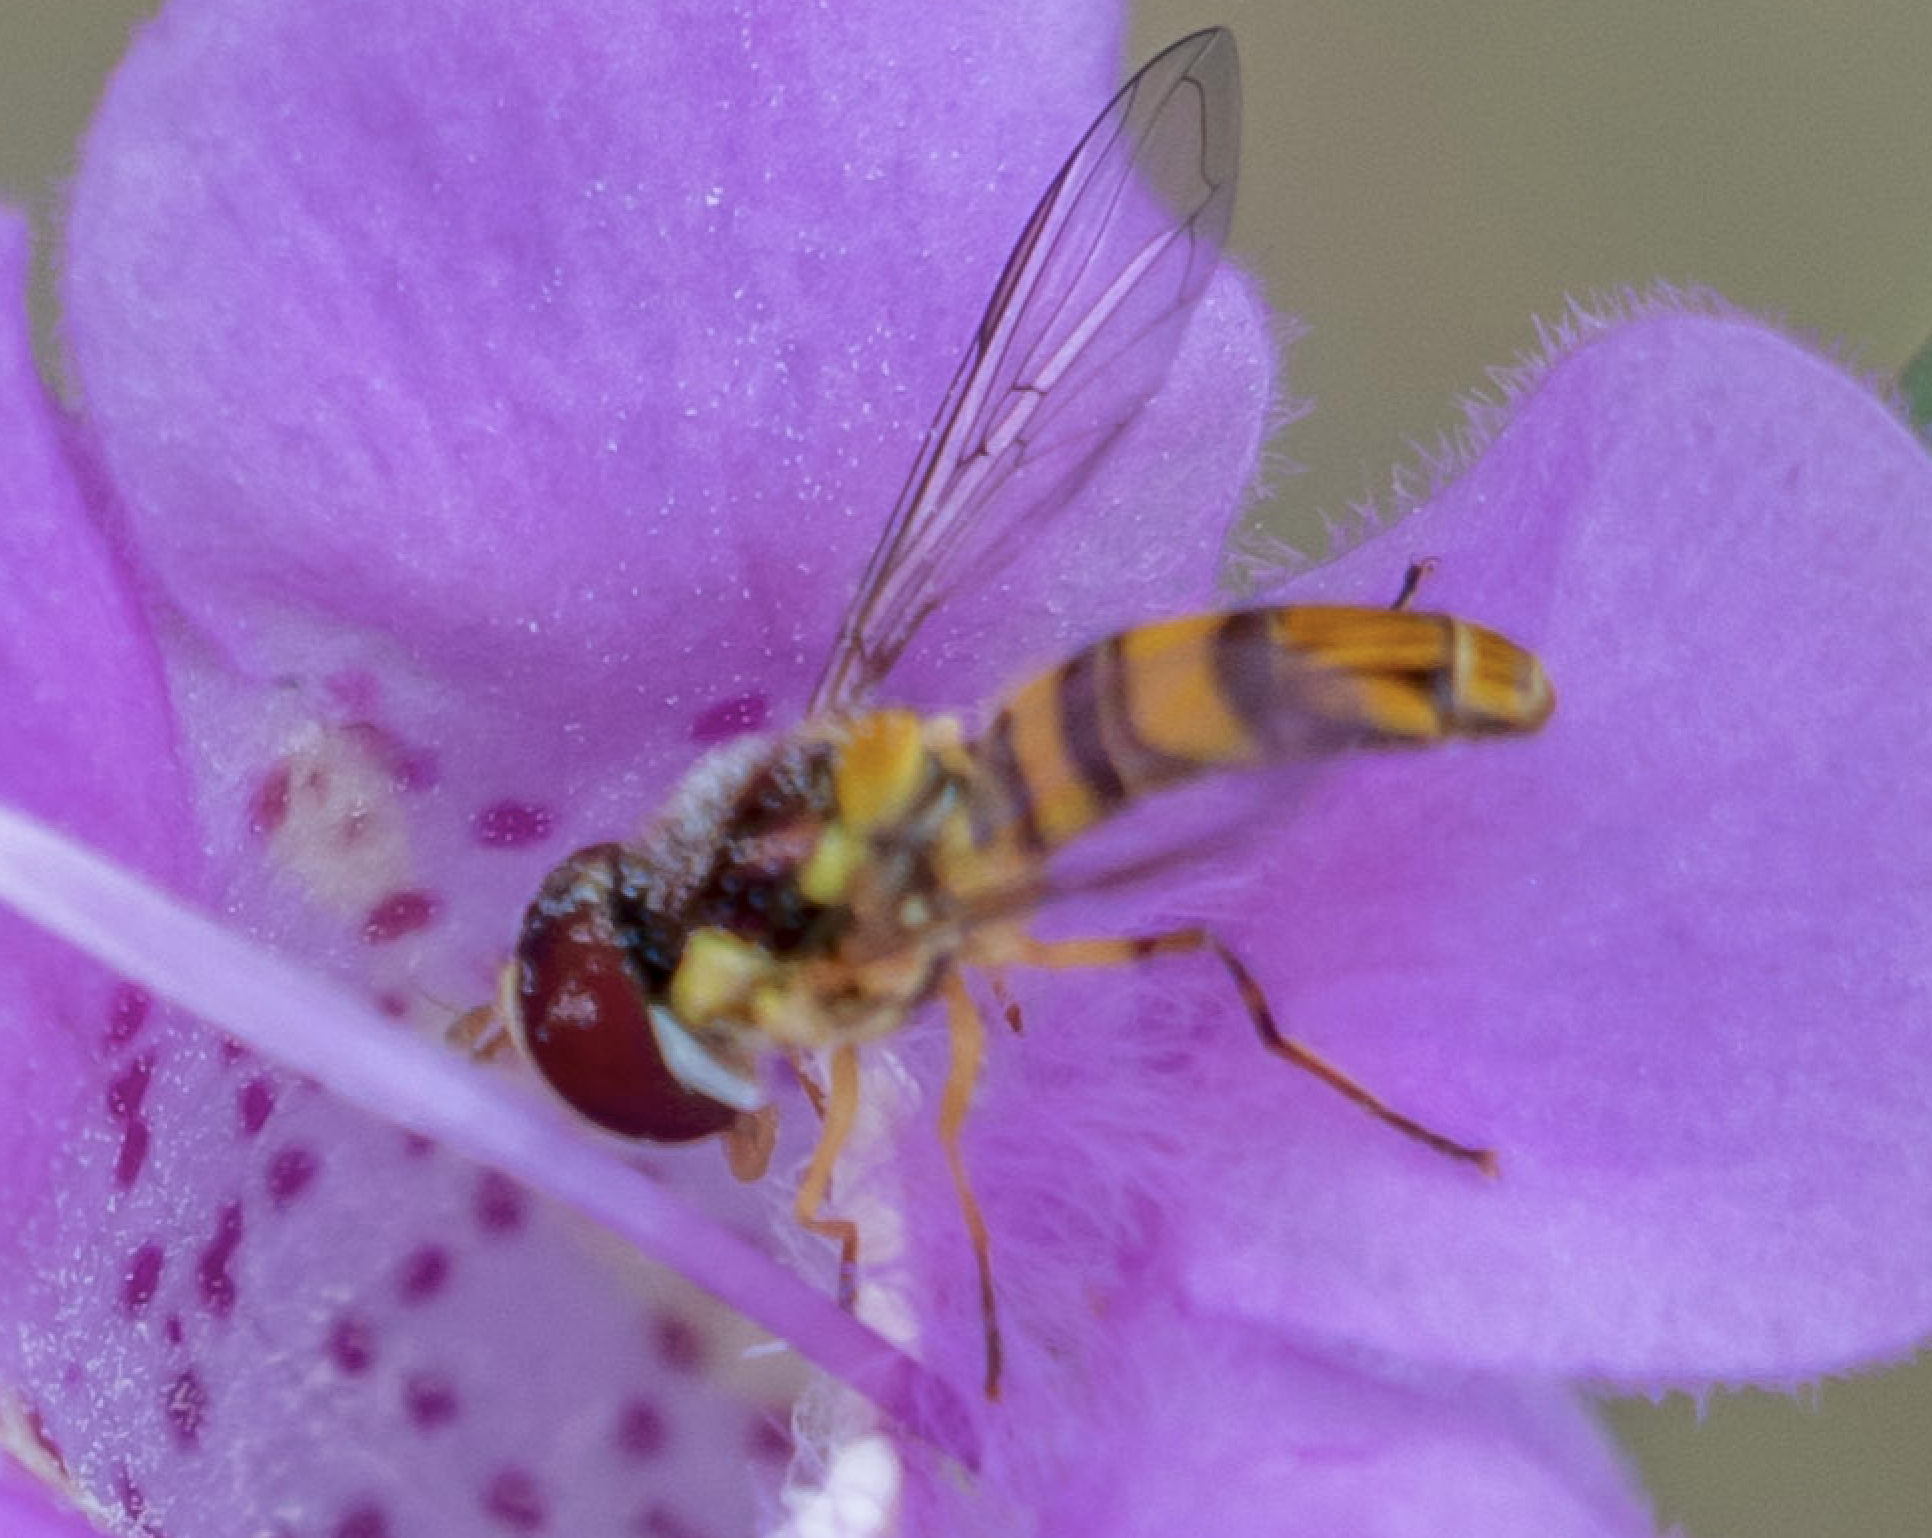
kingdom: Animalia
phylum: Arthropoda
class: Insecta
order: Diptera
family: Syrphidae
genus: Allograpta
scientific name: Allograpta obliqua
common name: Common oblique syrphid
